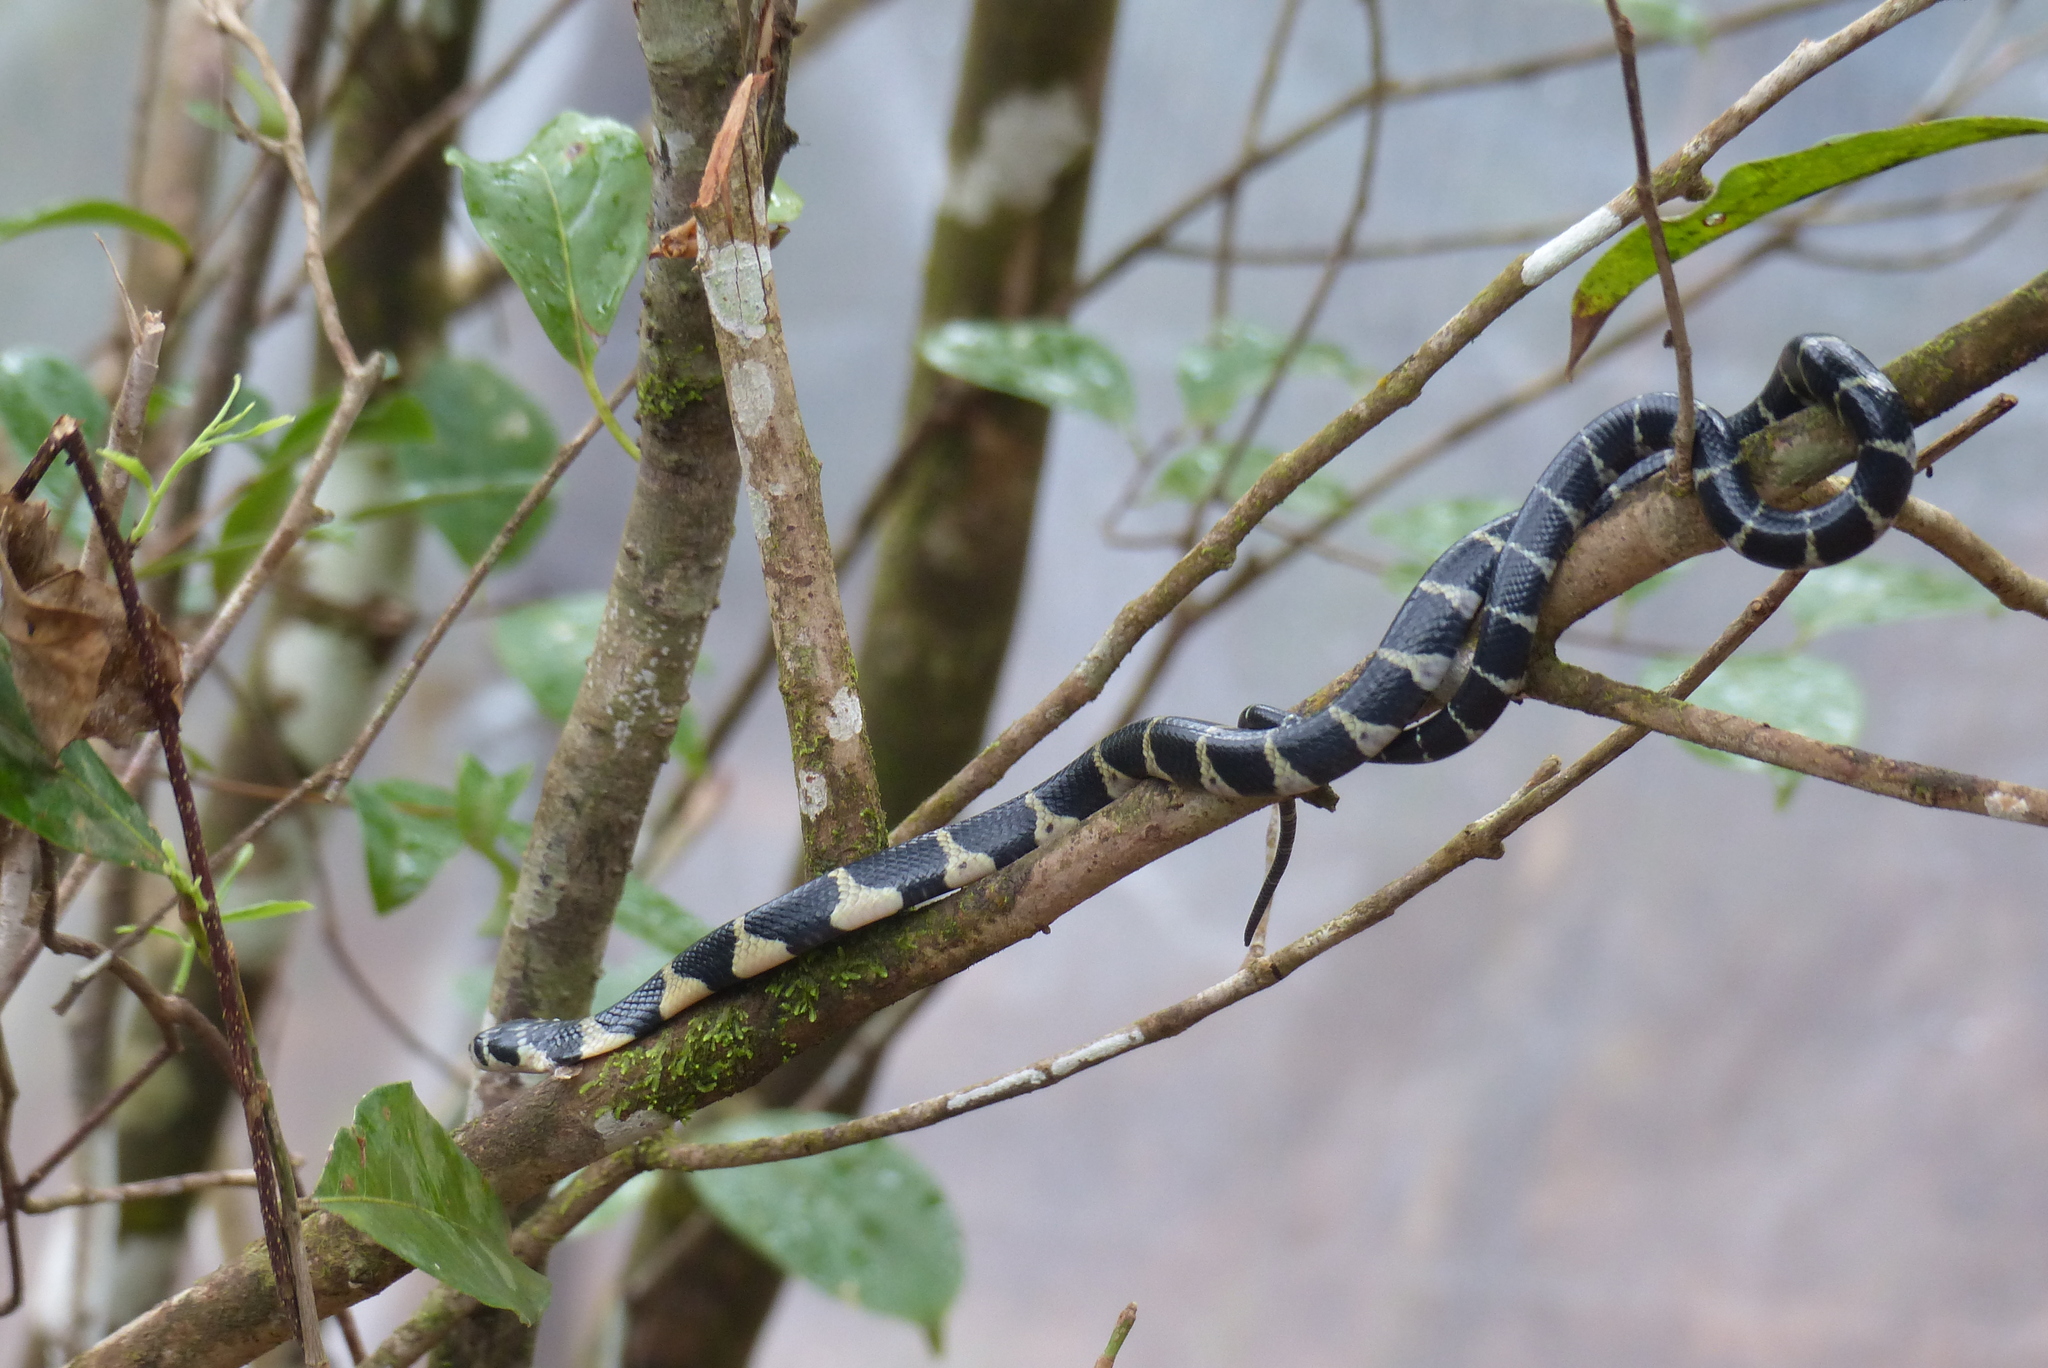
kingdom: Animalia
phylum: Chordata
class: Squamata
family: Elapidae
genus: Ophiophagus
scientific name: Ophiophagus hannah
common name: Hamadryad
